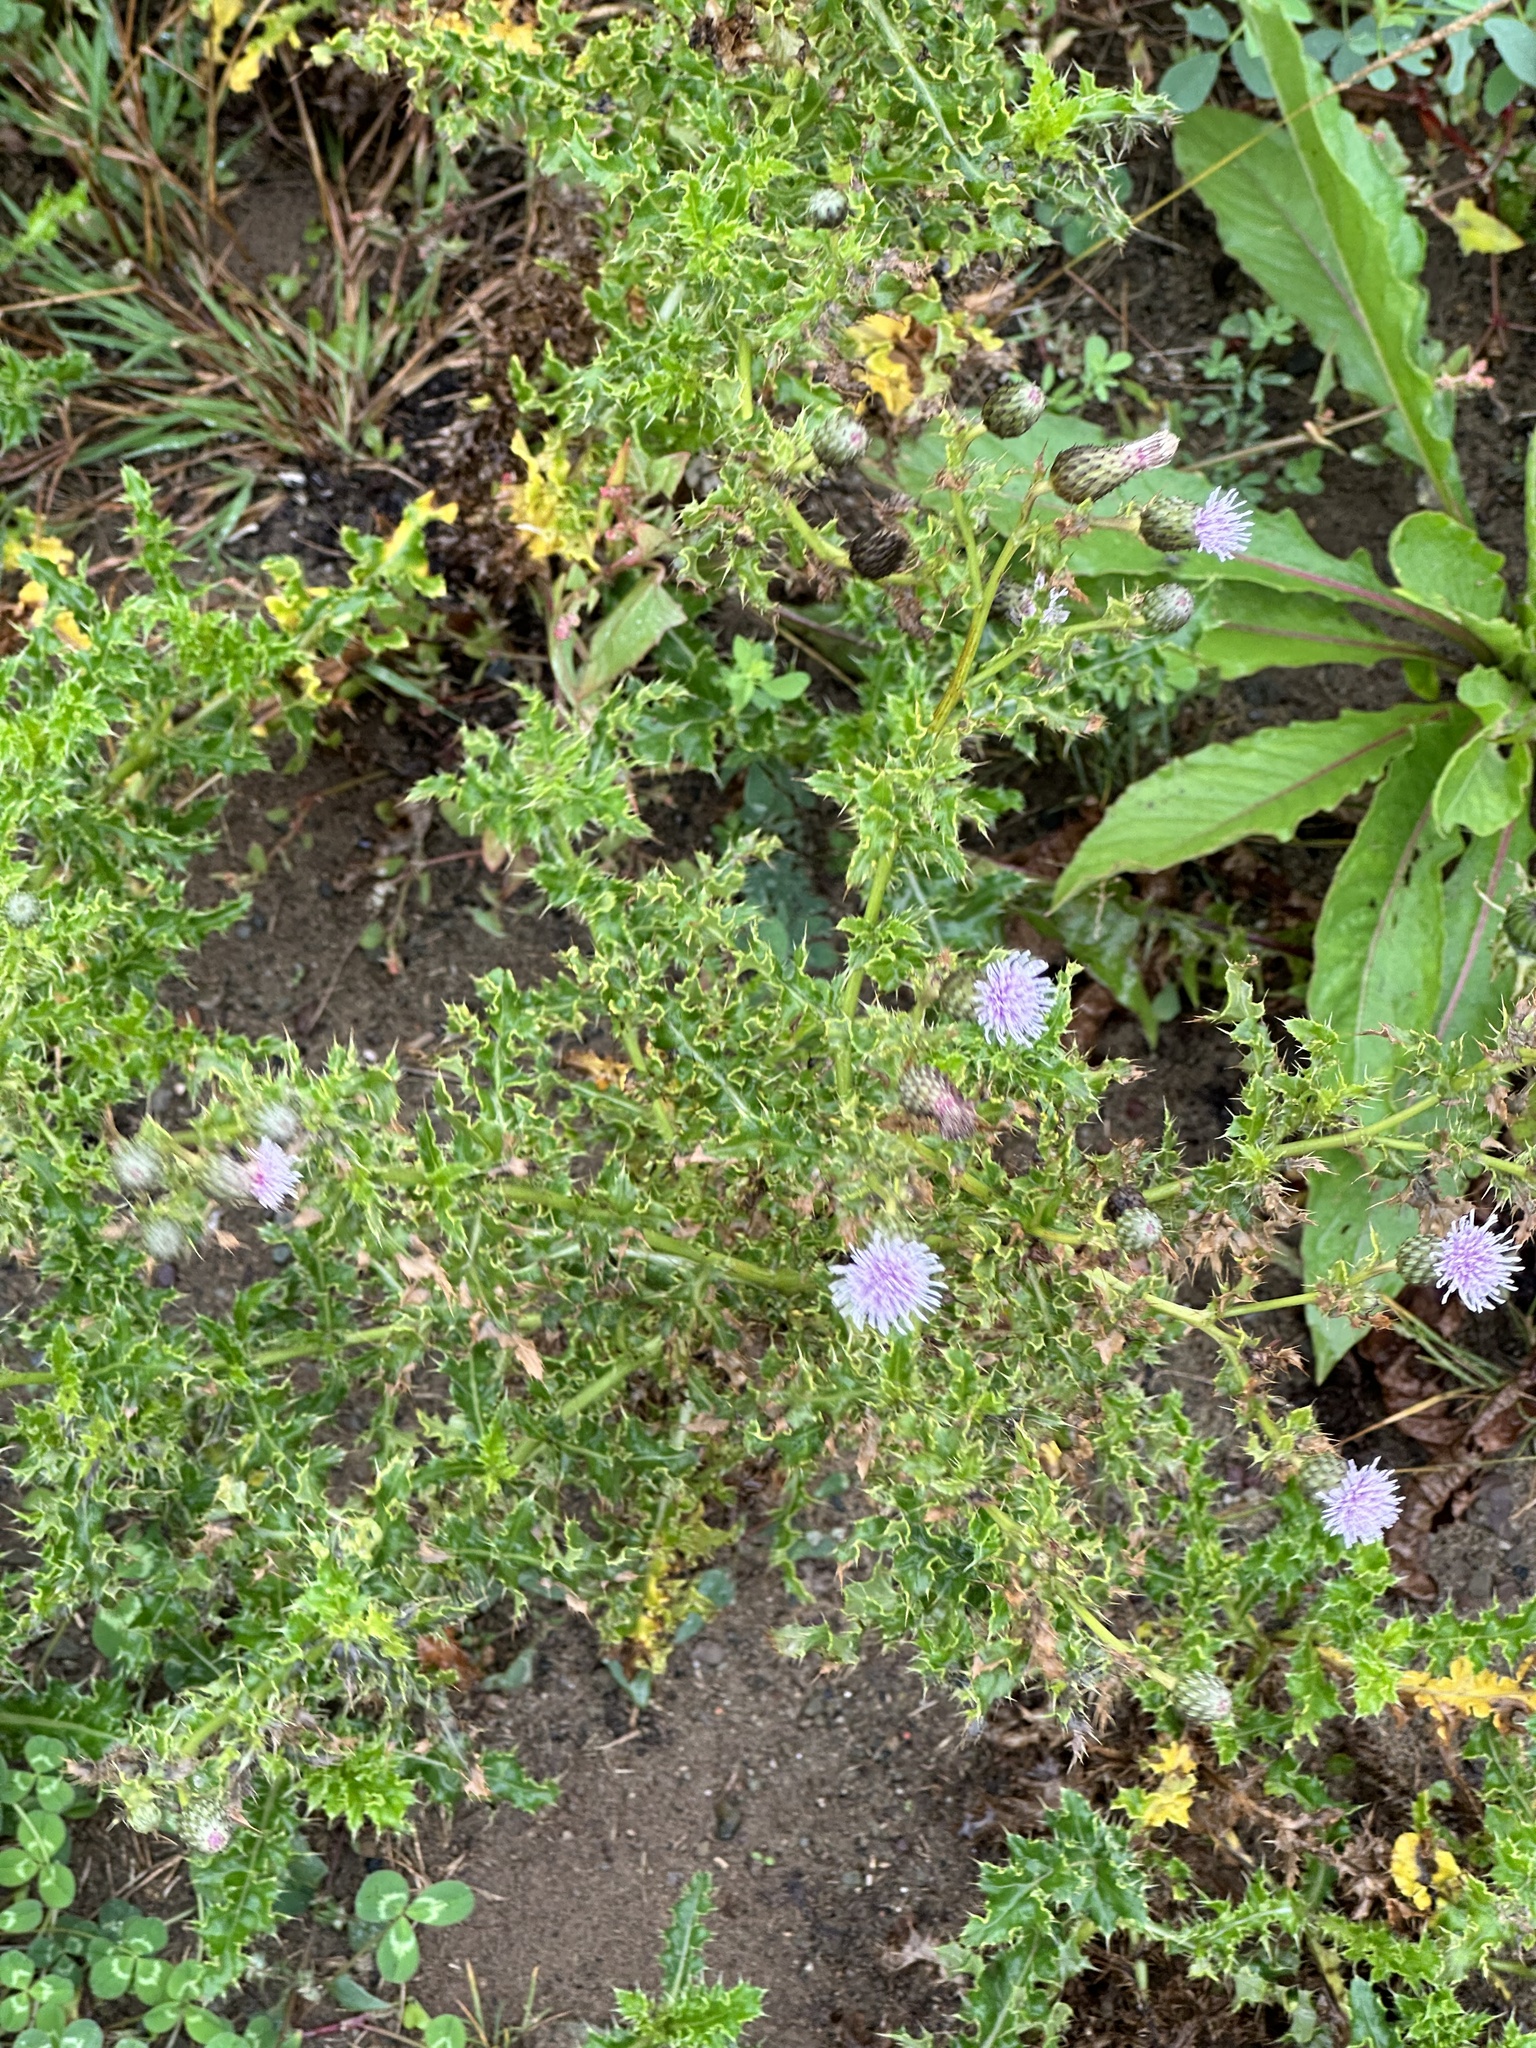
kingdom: Plantae
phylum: Tracheophyta
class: Magnoliopsida
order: Asterales
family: Asteraceae
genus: Cirsium
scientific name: Cirsium arvense
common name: Creeping thistle
